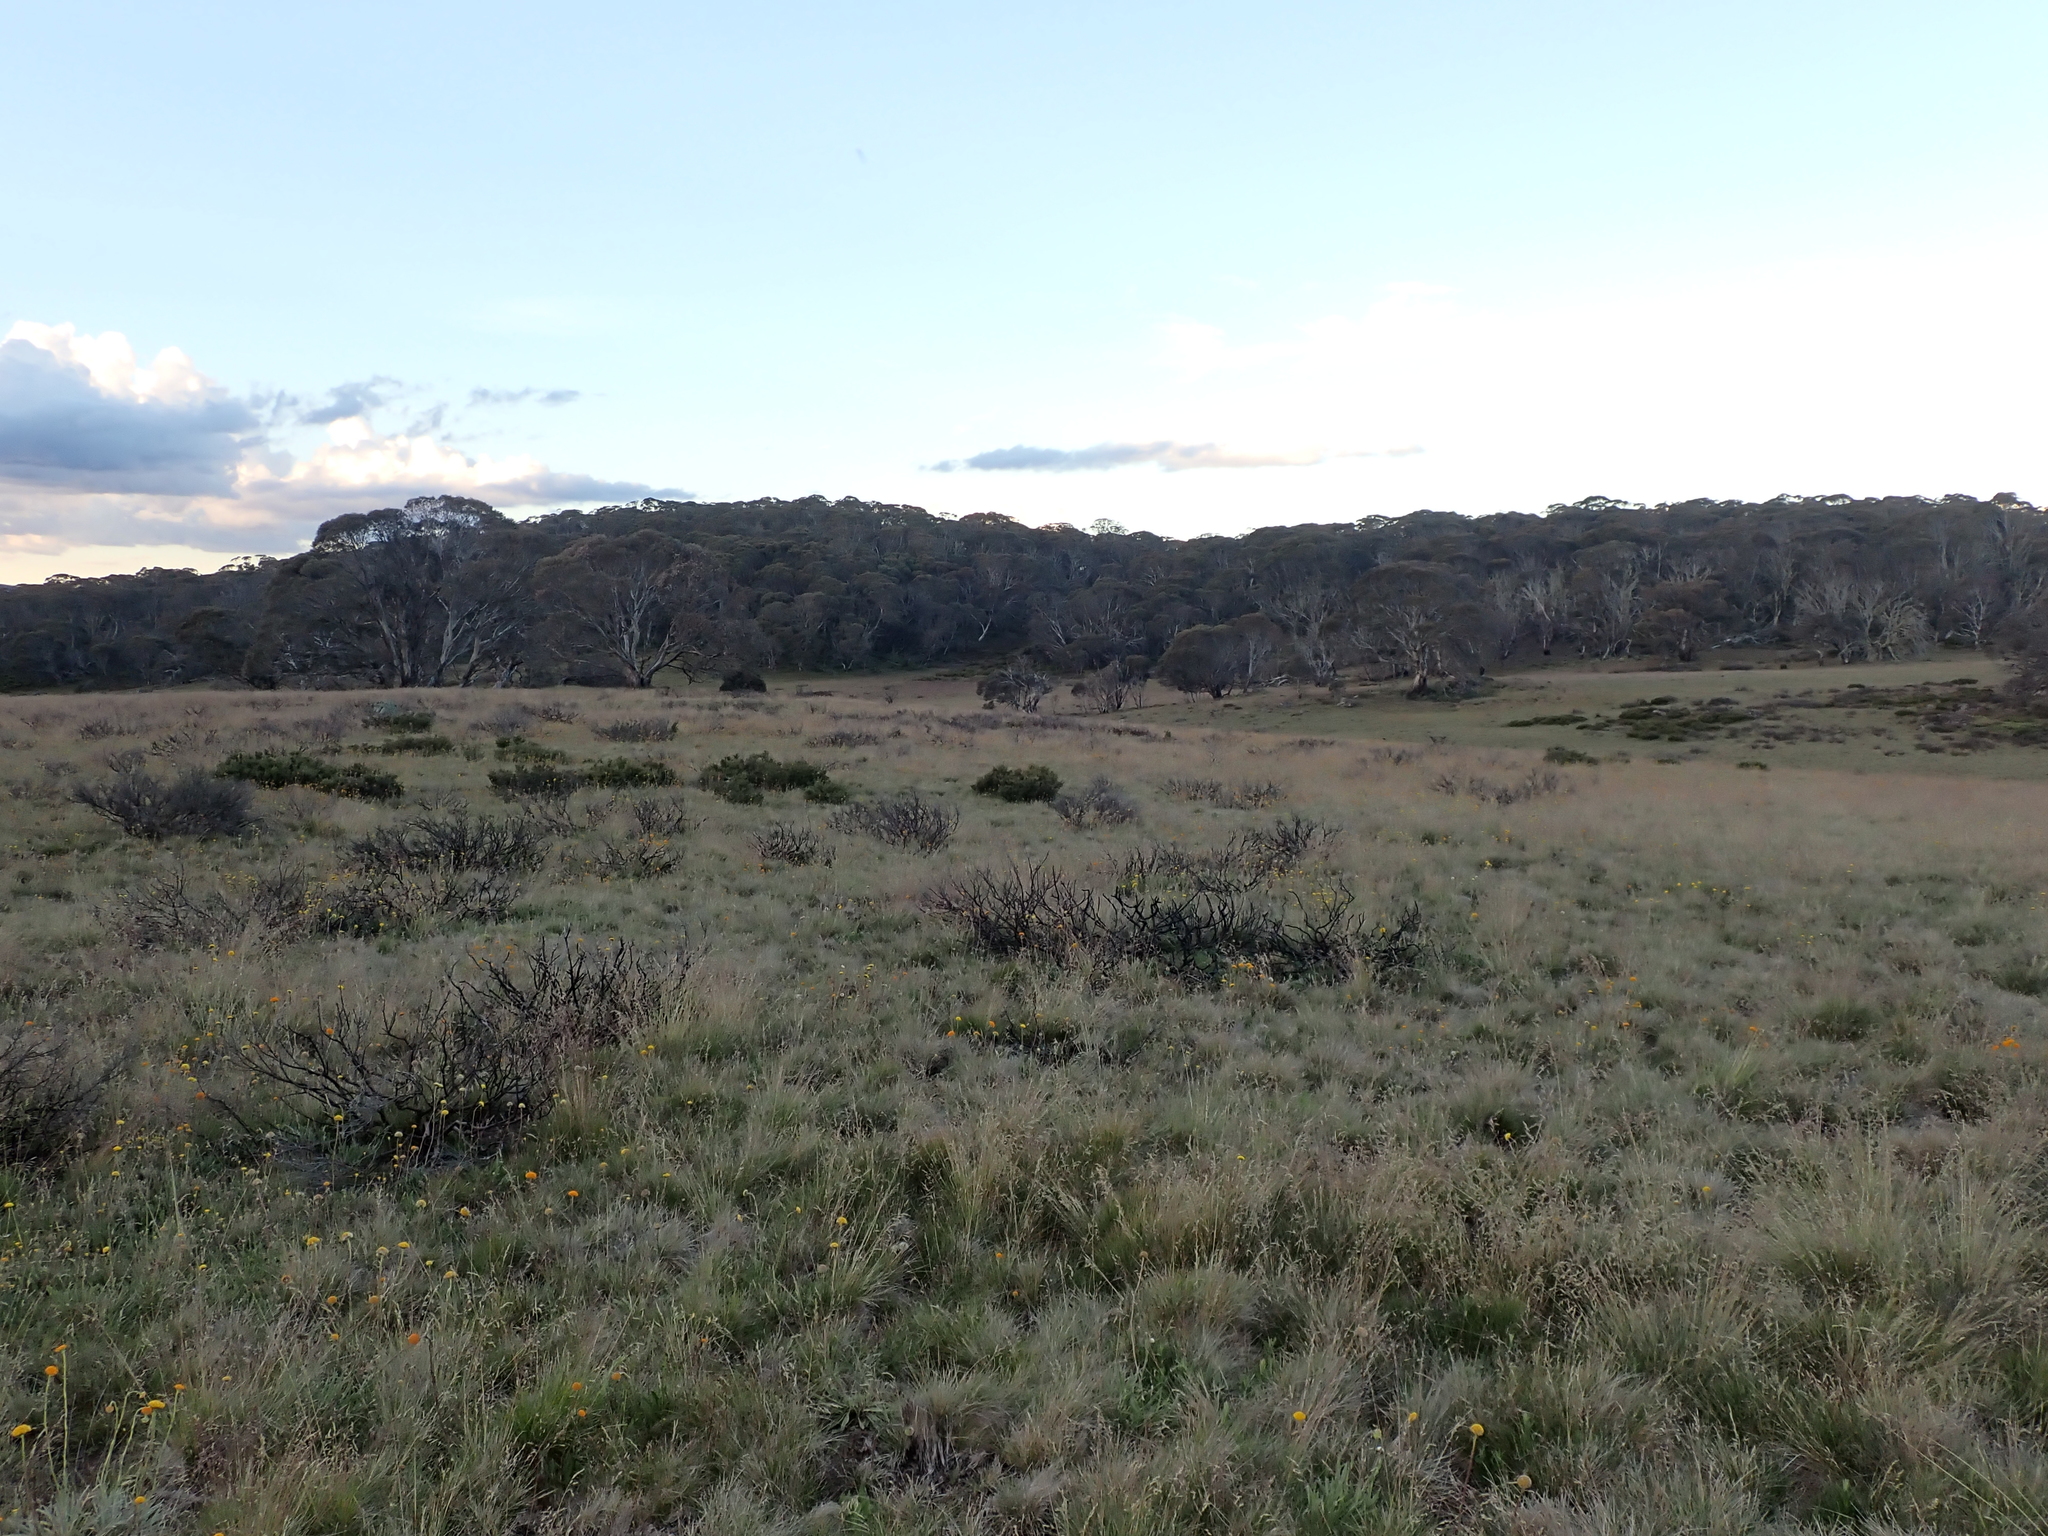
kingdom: Plantae
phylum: Tracheophyta
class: Magnoliopsida
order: Proteales
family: Proteaceae
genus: Grevillea
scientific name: Grevillea australis
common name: Alpine grevillea
